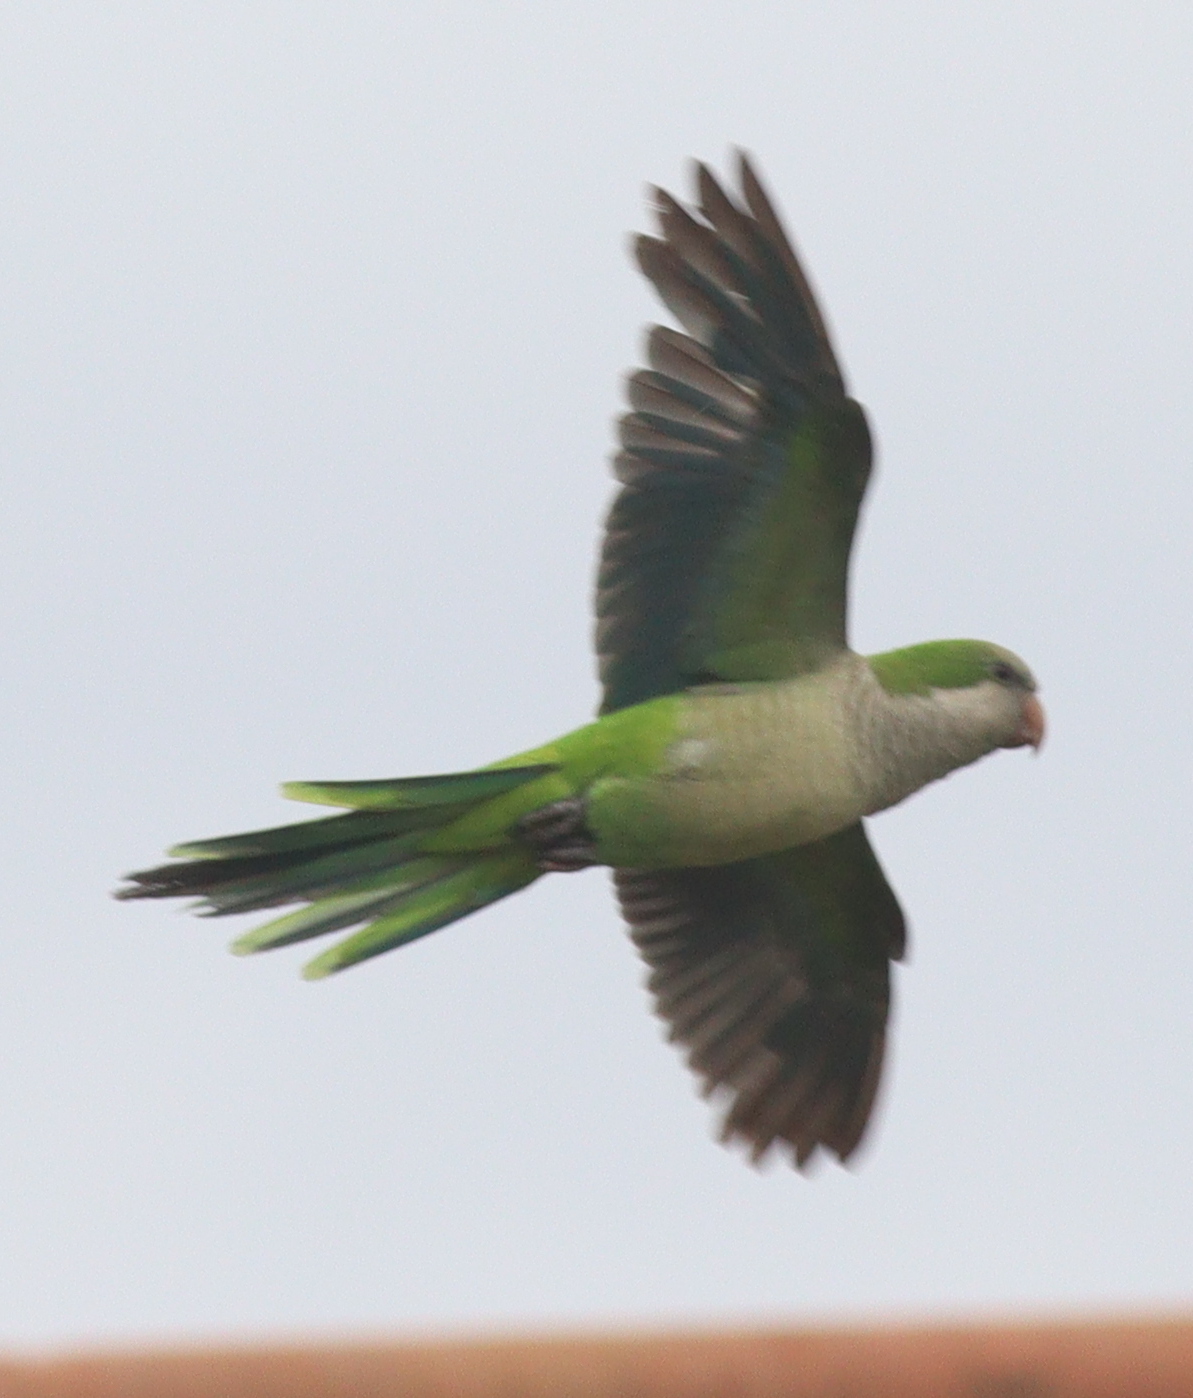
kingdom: Animalia
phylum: Chordata
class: Aves
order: Psittaciformes
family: Psittacidae
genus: Myiopsitta
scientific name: Myiopsitta monachus
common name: Monk parakeet
